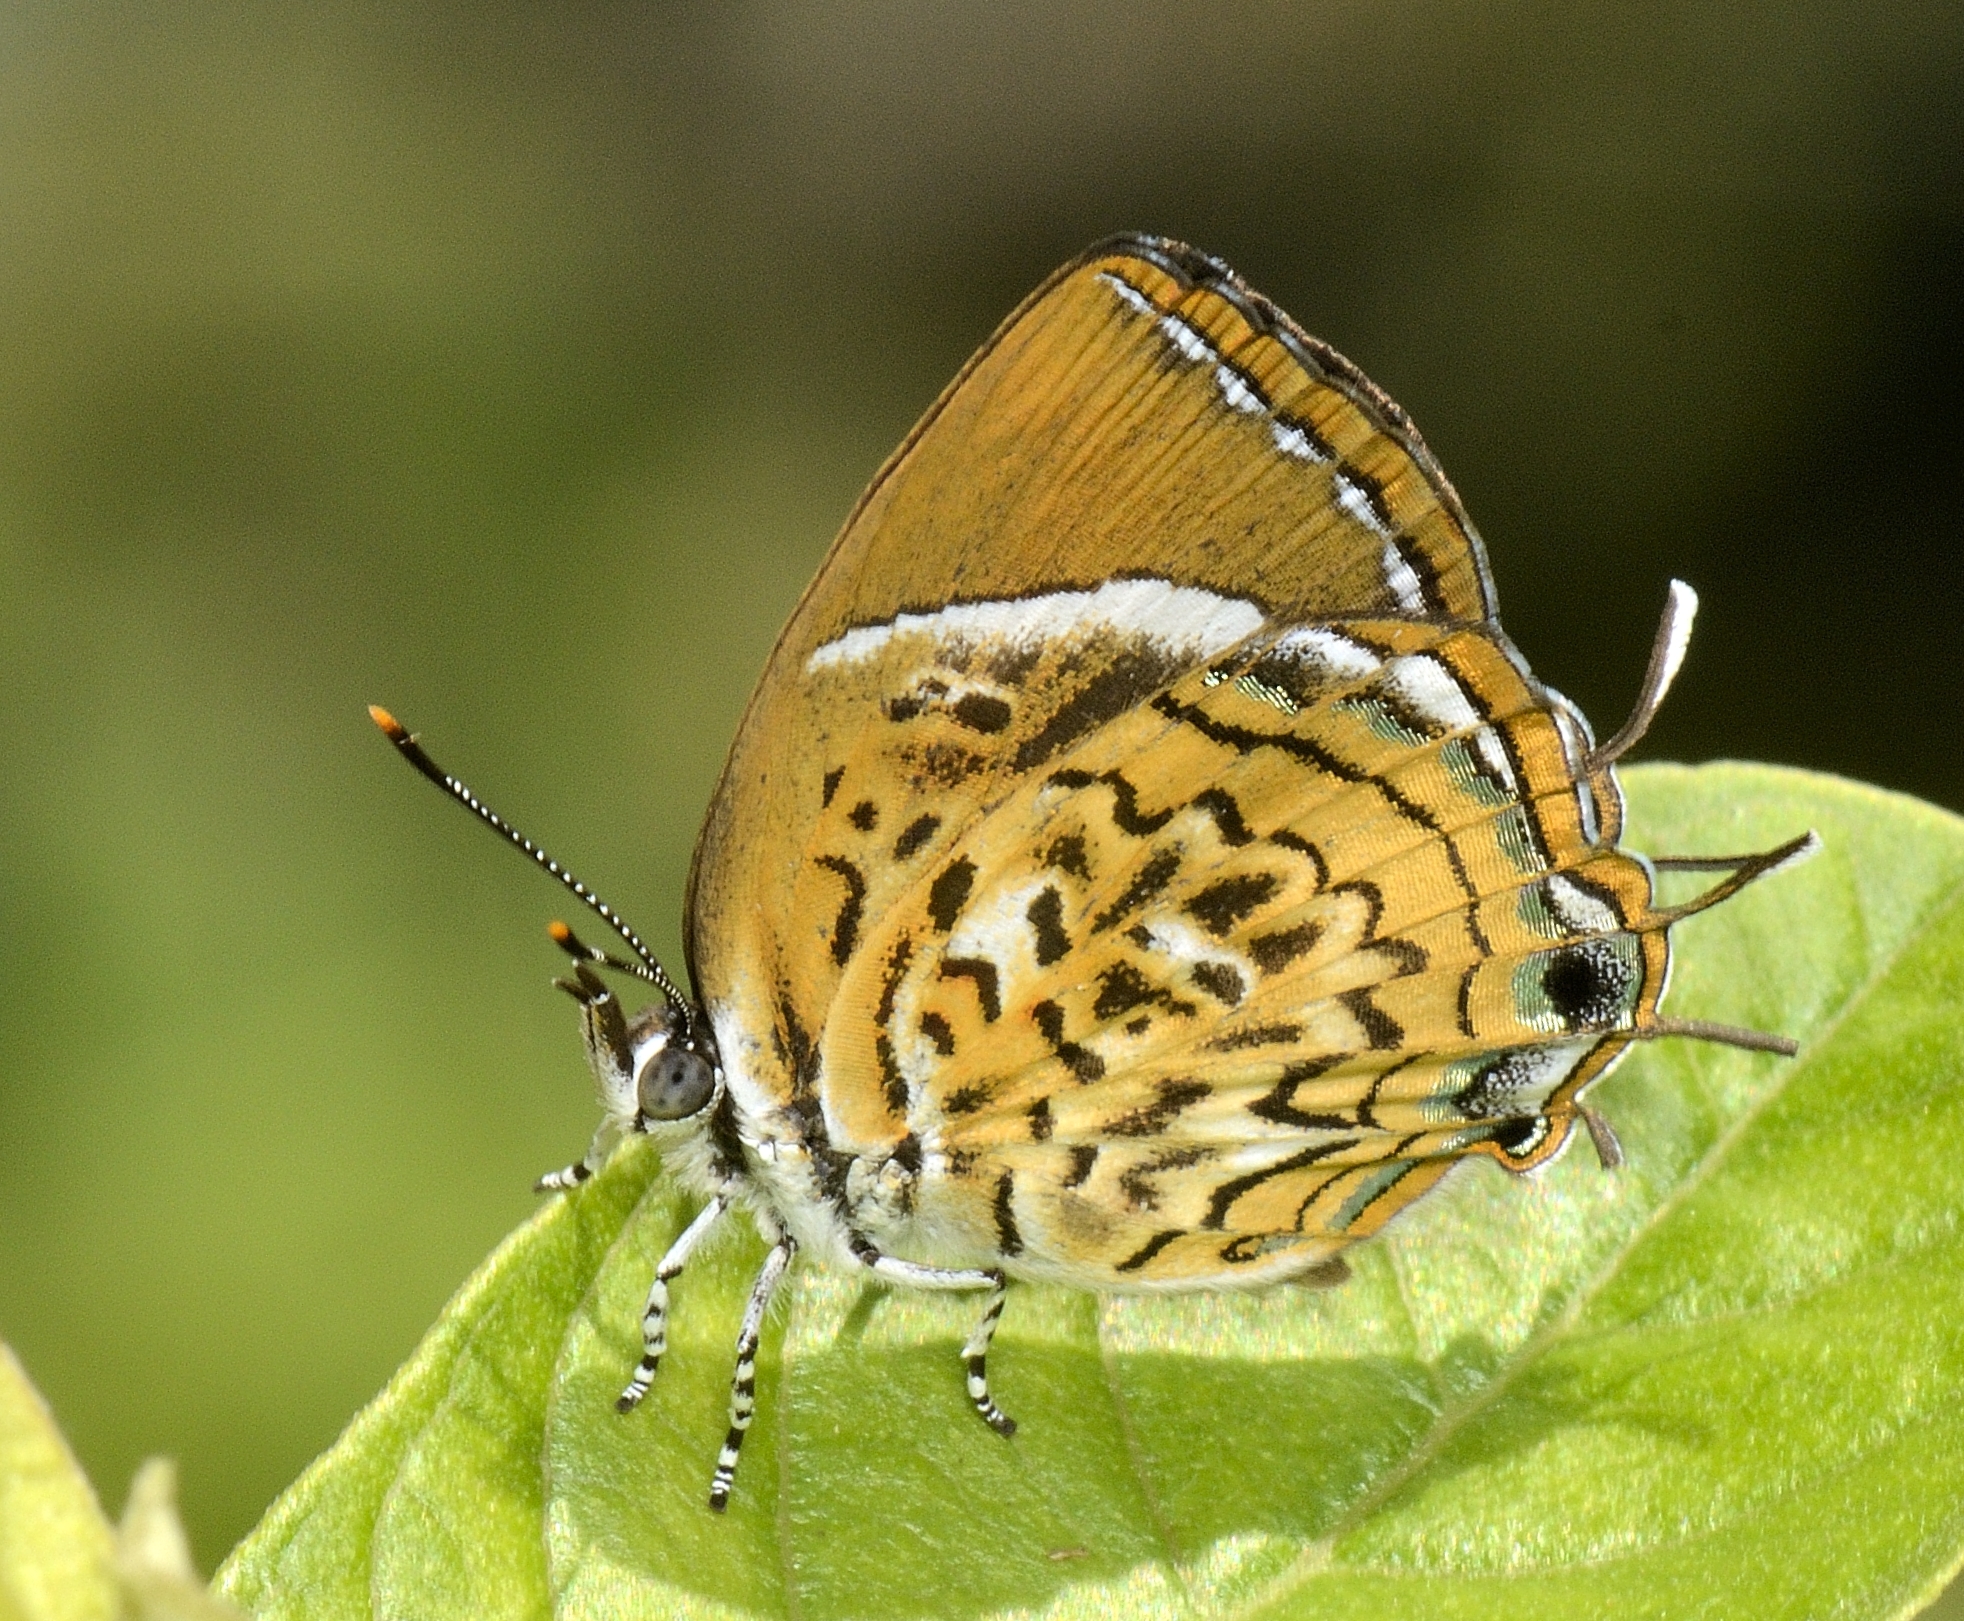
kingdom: Animalia
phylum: Arthropoda
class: Insecta
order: Lepidoptera
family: Lycaenidae
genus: Rathinda
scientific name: Rathinda amor
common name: Monkey puzzle
